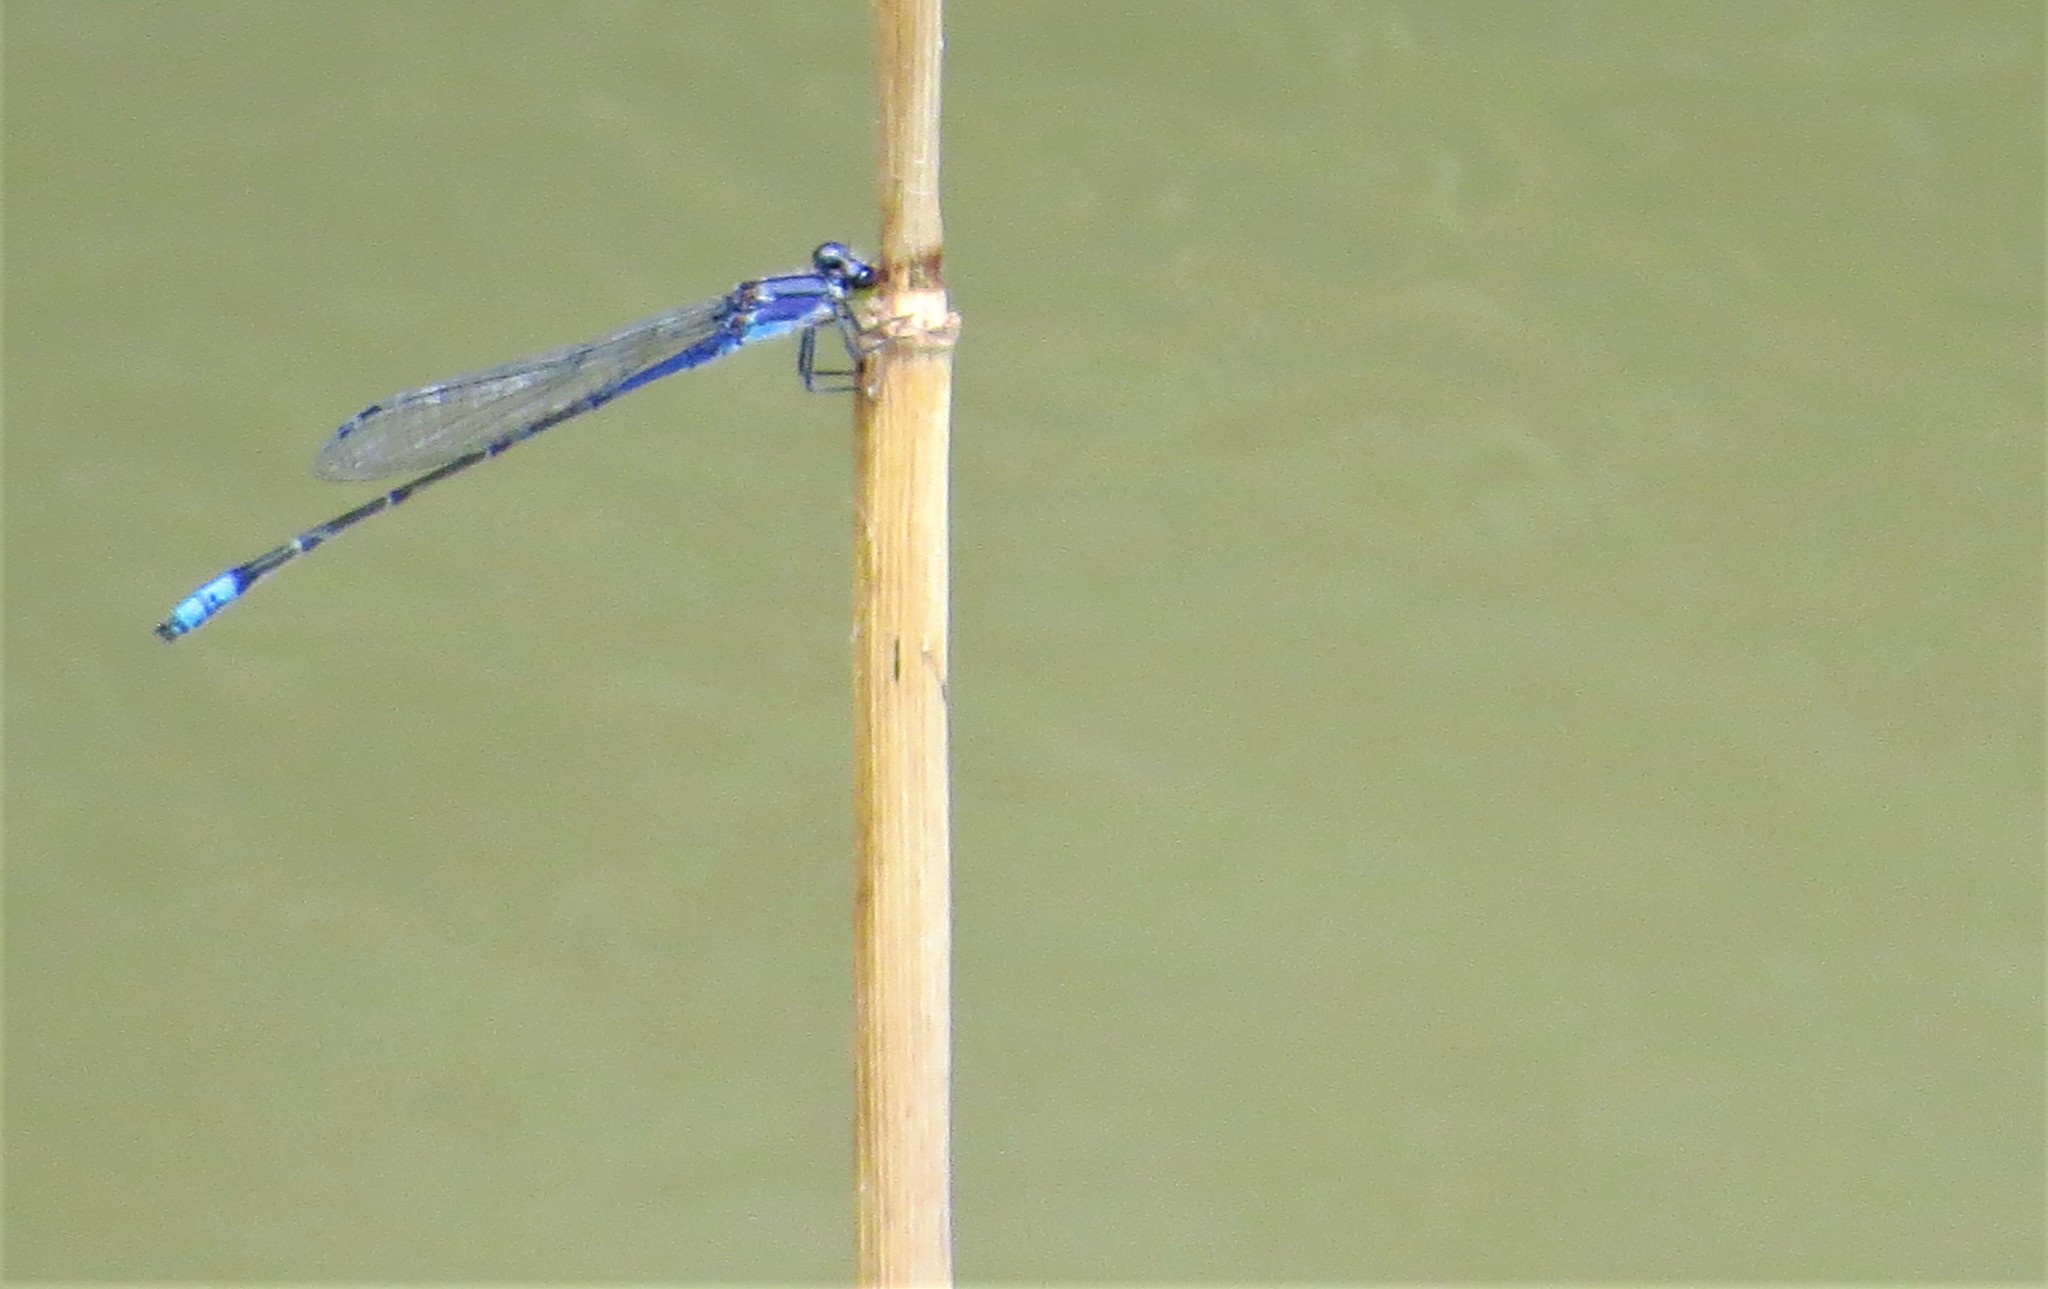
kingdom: Animalia
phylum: Arthropoda
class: Insecta
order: Odonata
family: Coenagrionidae
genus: Enallagma
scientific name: Enallagma novaehispaniae
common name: Neotropical bluet
